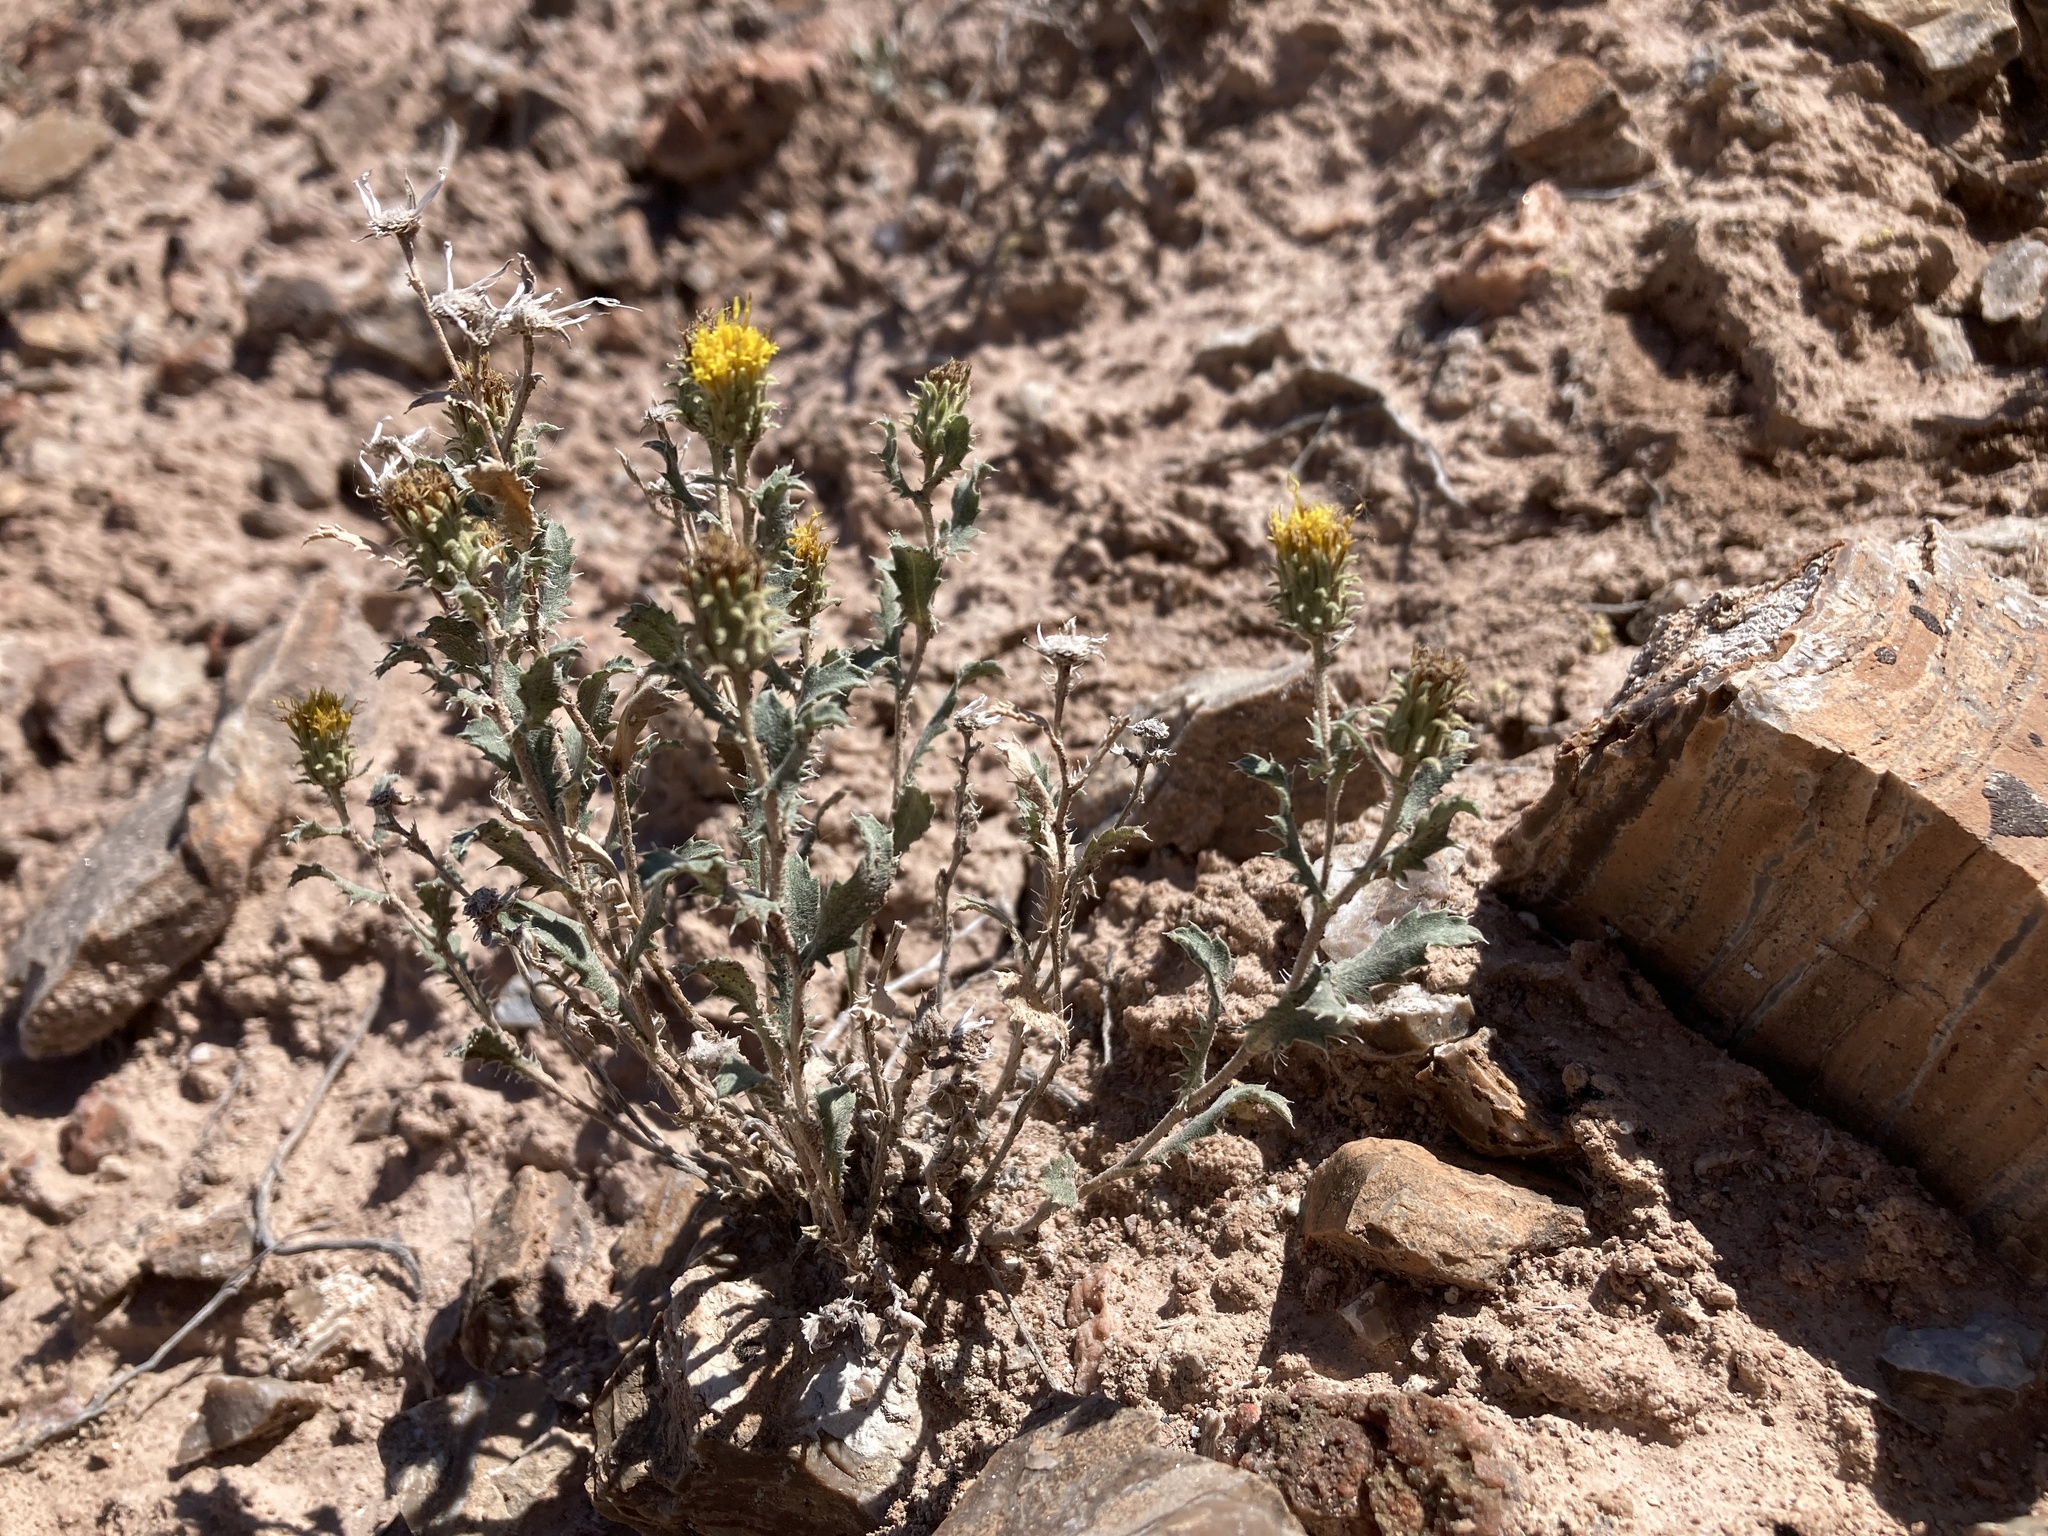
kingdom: Plantae
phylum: Tracheophyta
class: Magnoliopsida
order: Asterales
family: Asteraceae
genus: Xanthisma
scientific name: Xanthisma grindelioides
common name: Goldenweed
